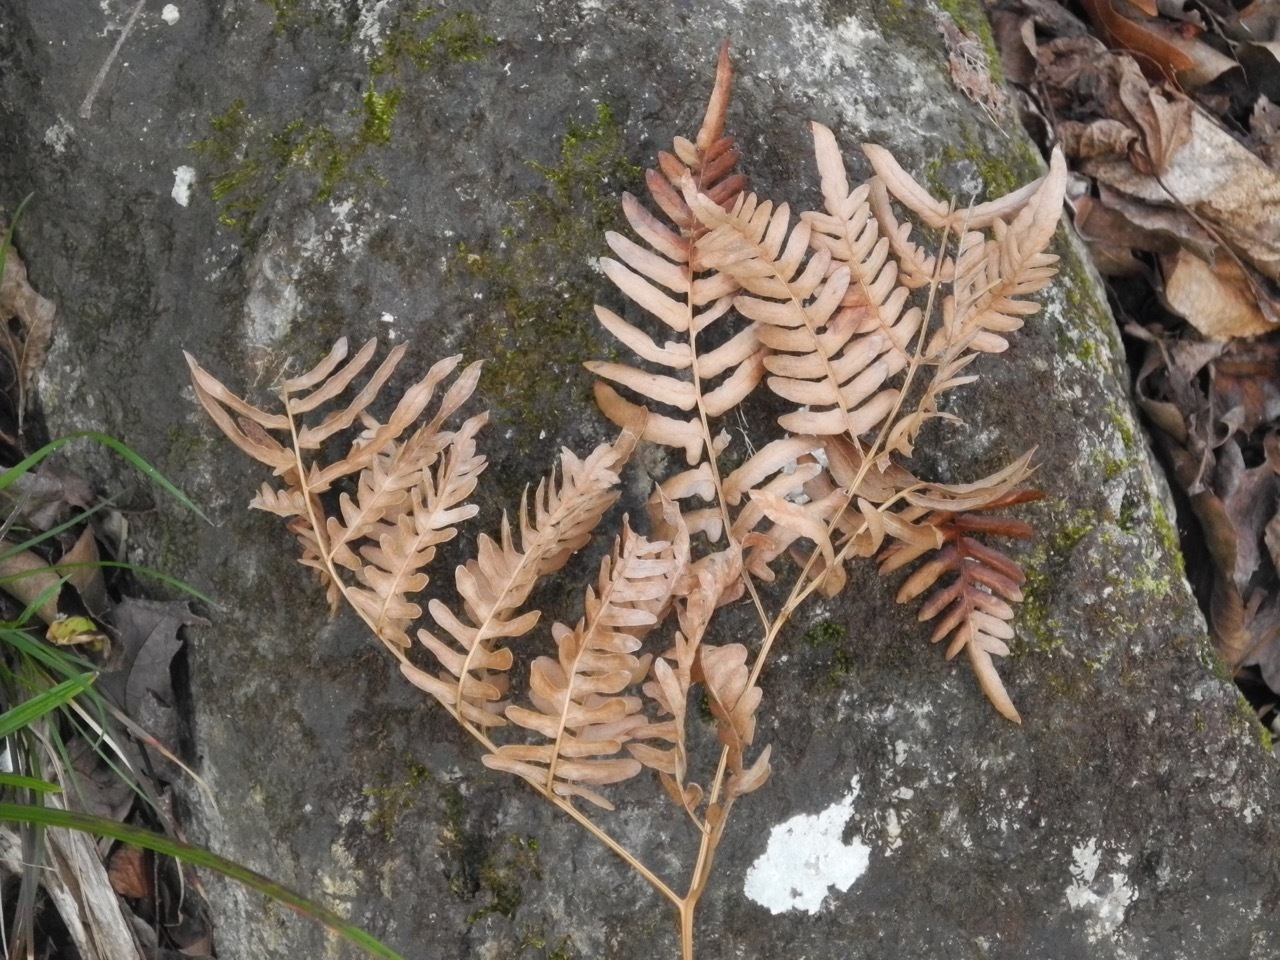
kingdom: Plantae
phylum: Tracheophyta
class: Polypodiopsida
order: Polypodiales
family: Dennstaedtiaceae
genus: Pteridium
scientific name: Pteridium
